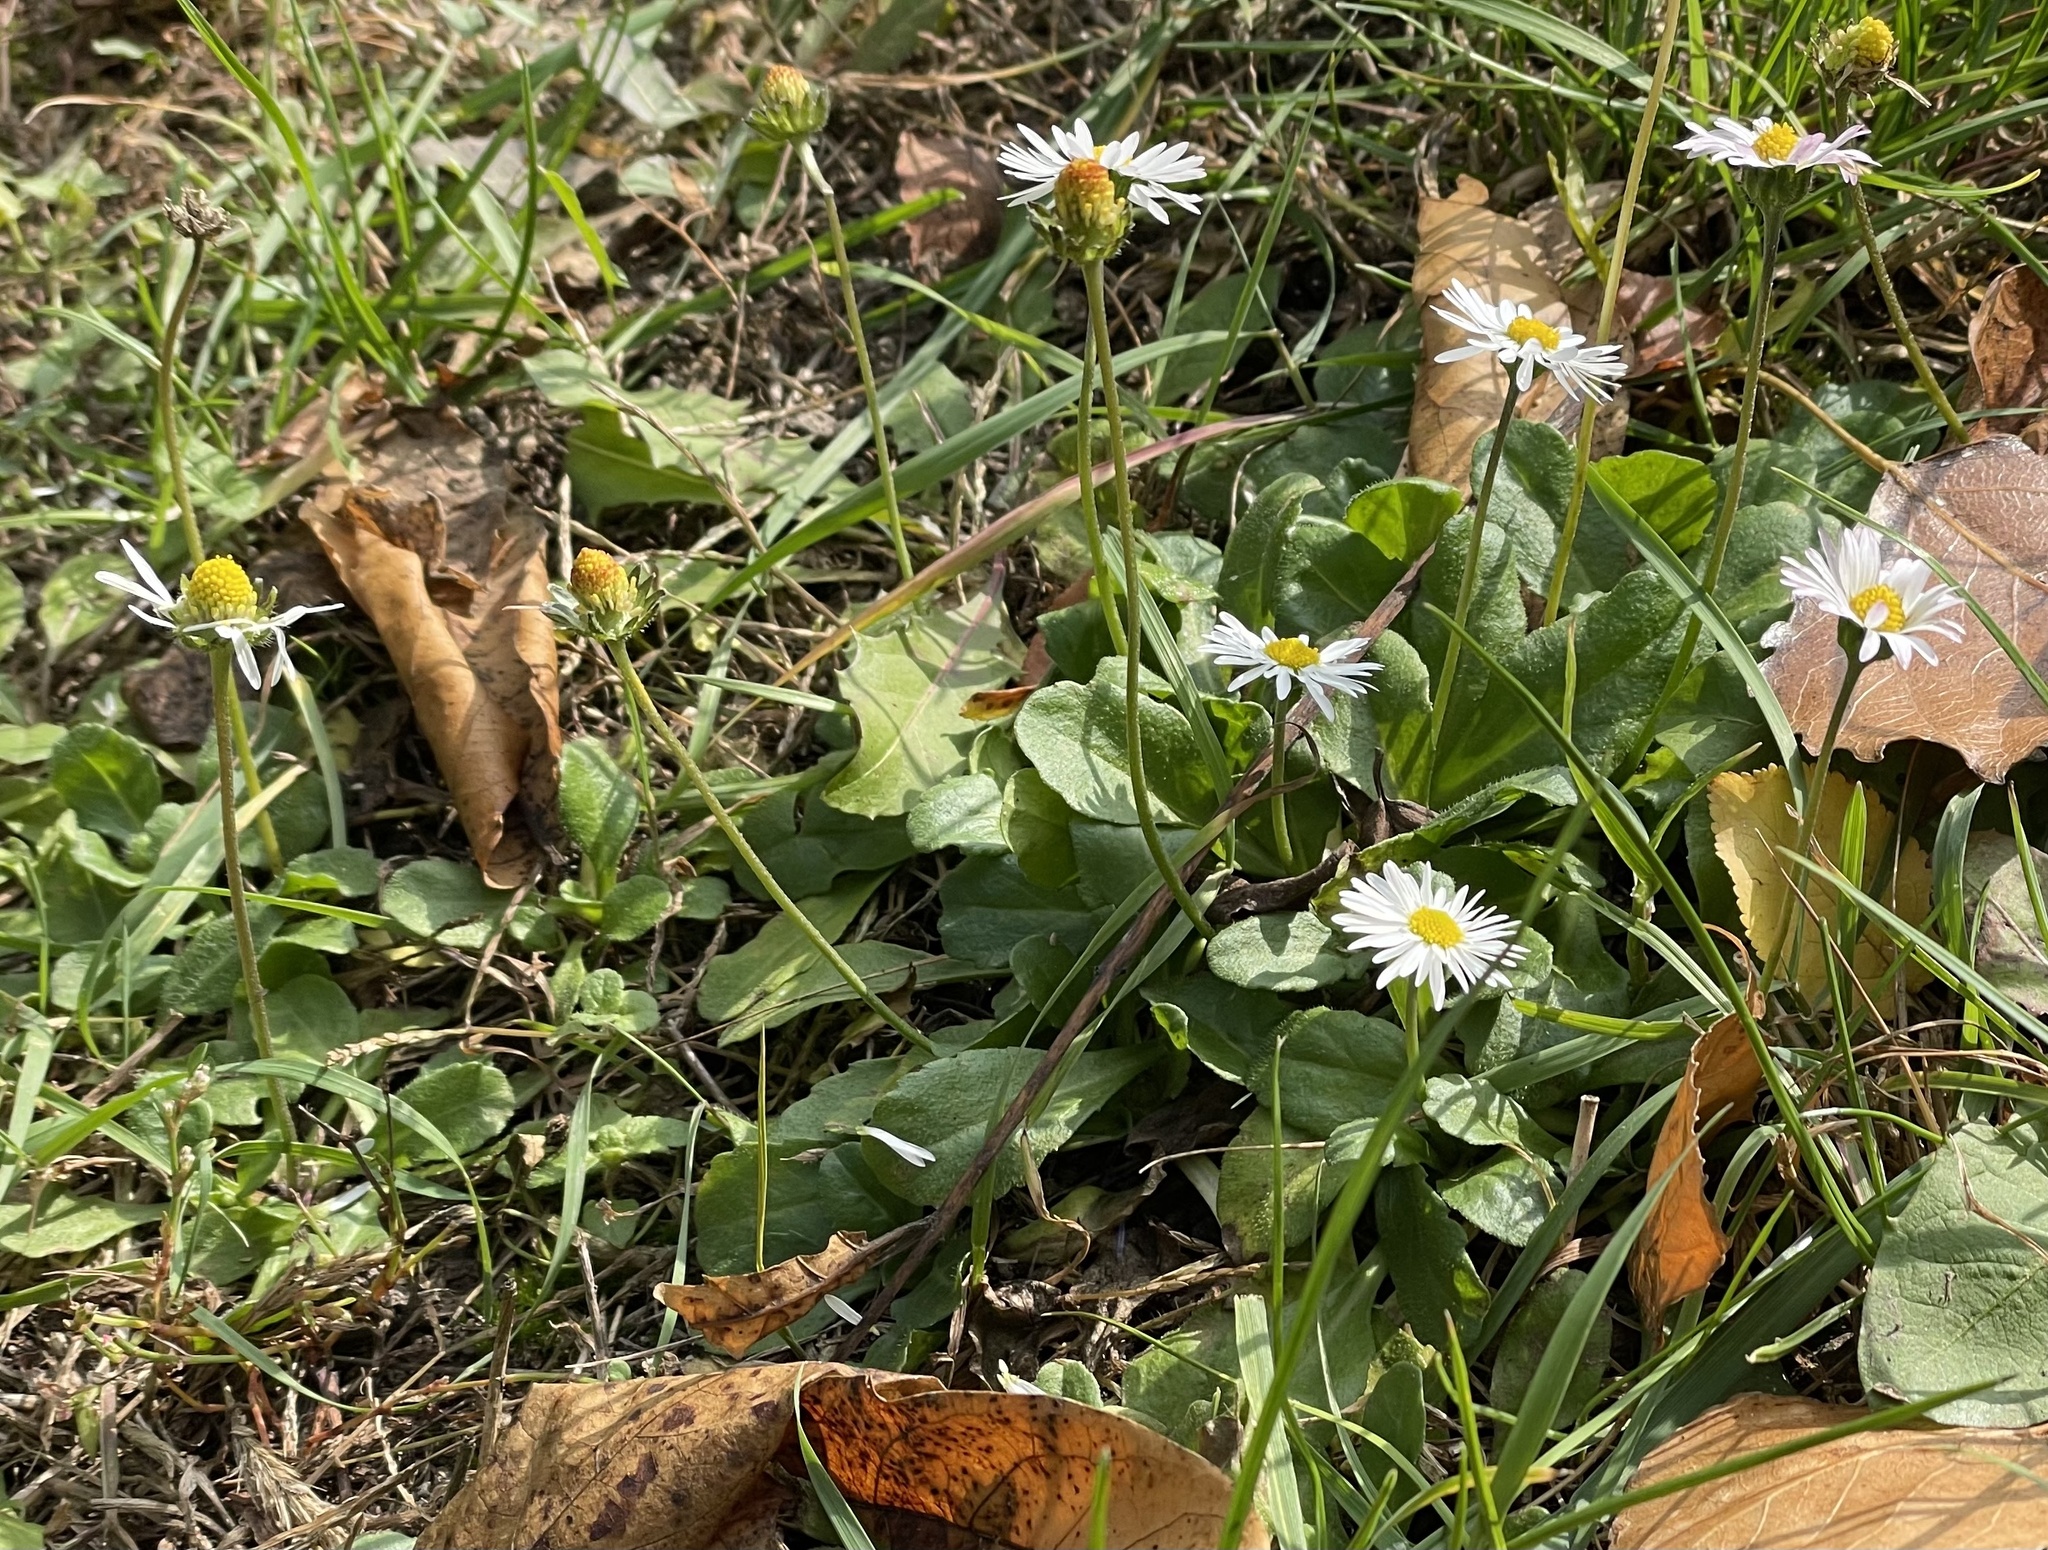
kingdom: Plantae
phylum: Tracheophyta
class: Magnoliopsida
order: Asterales
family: Asteraceae
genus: Bellis
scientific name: Bellis perennis
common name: Lawndaisy
